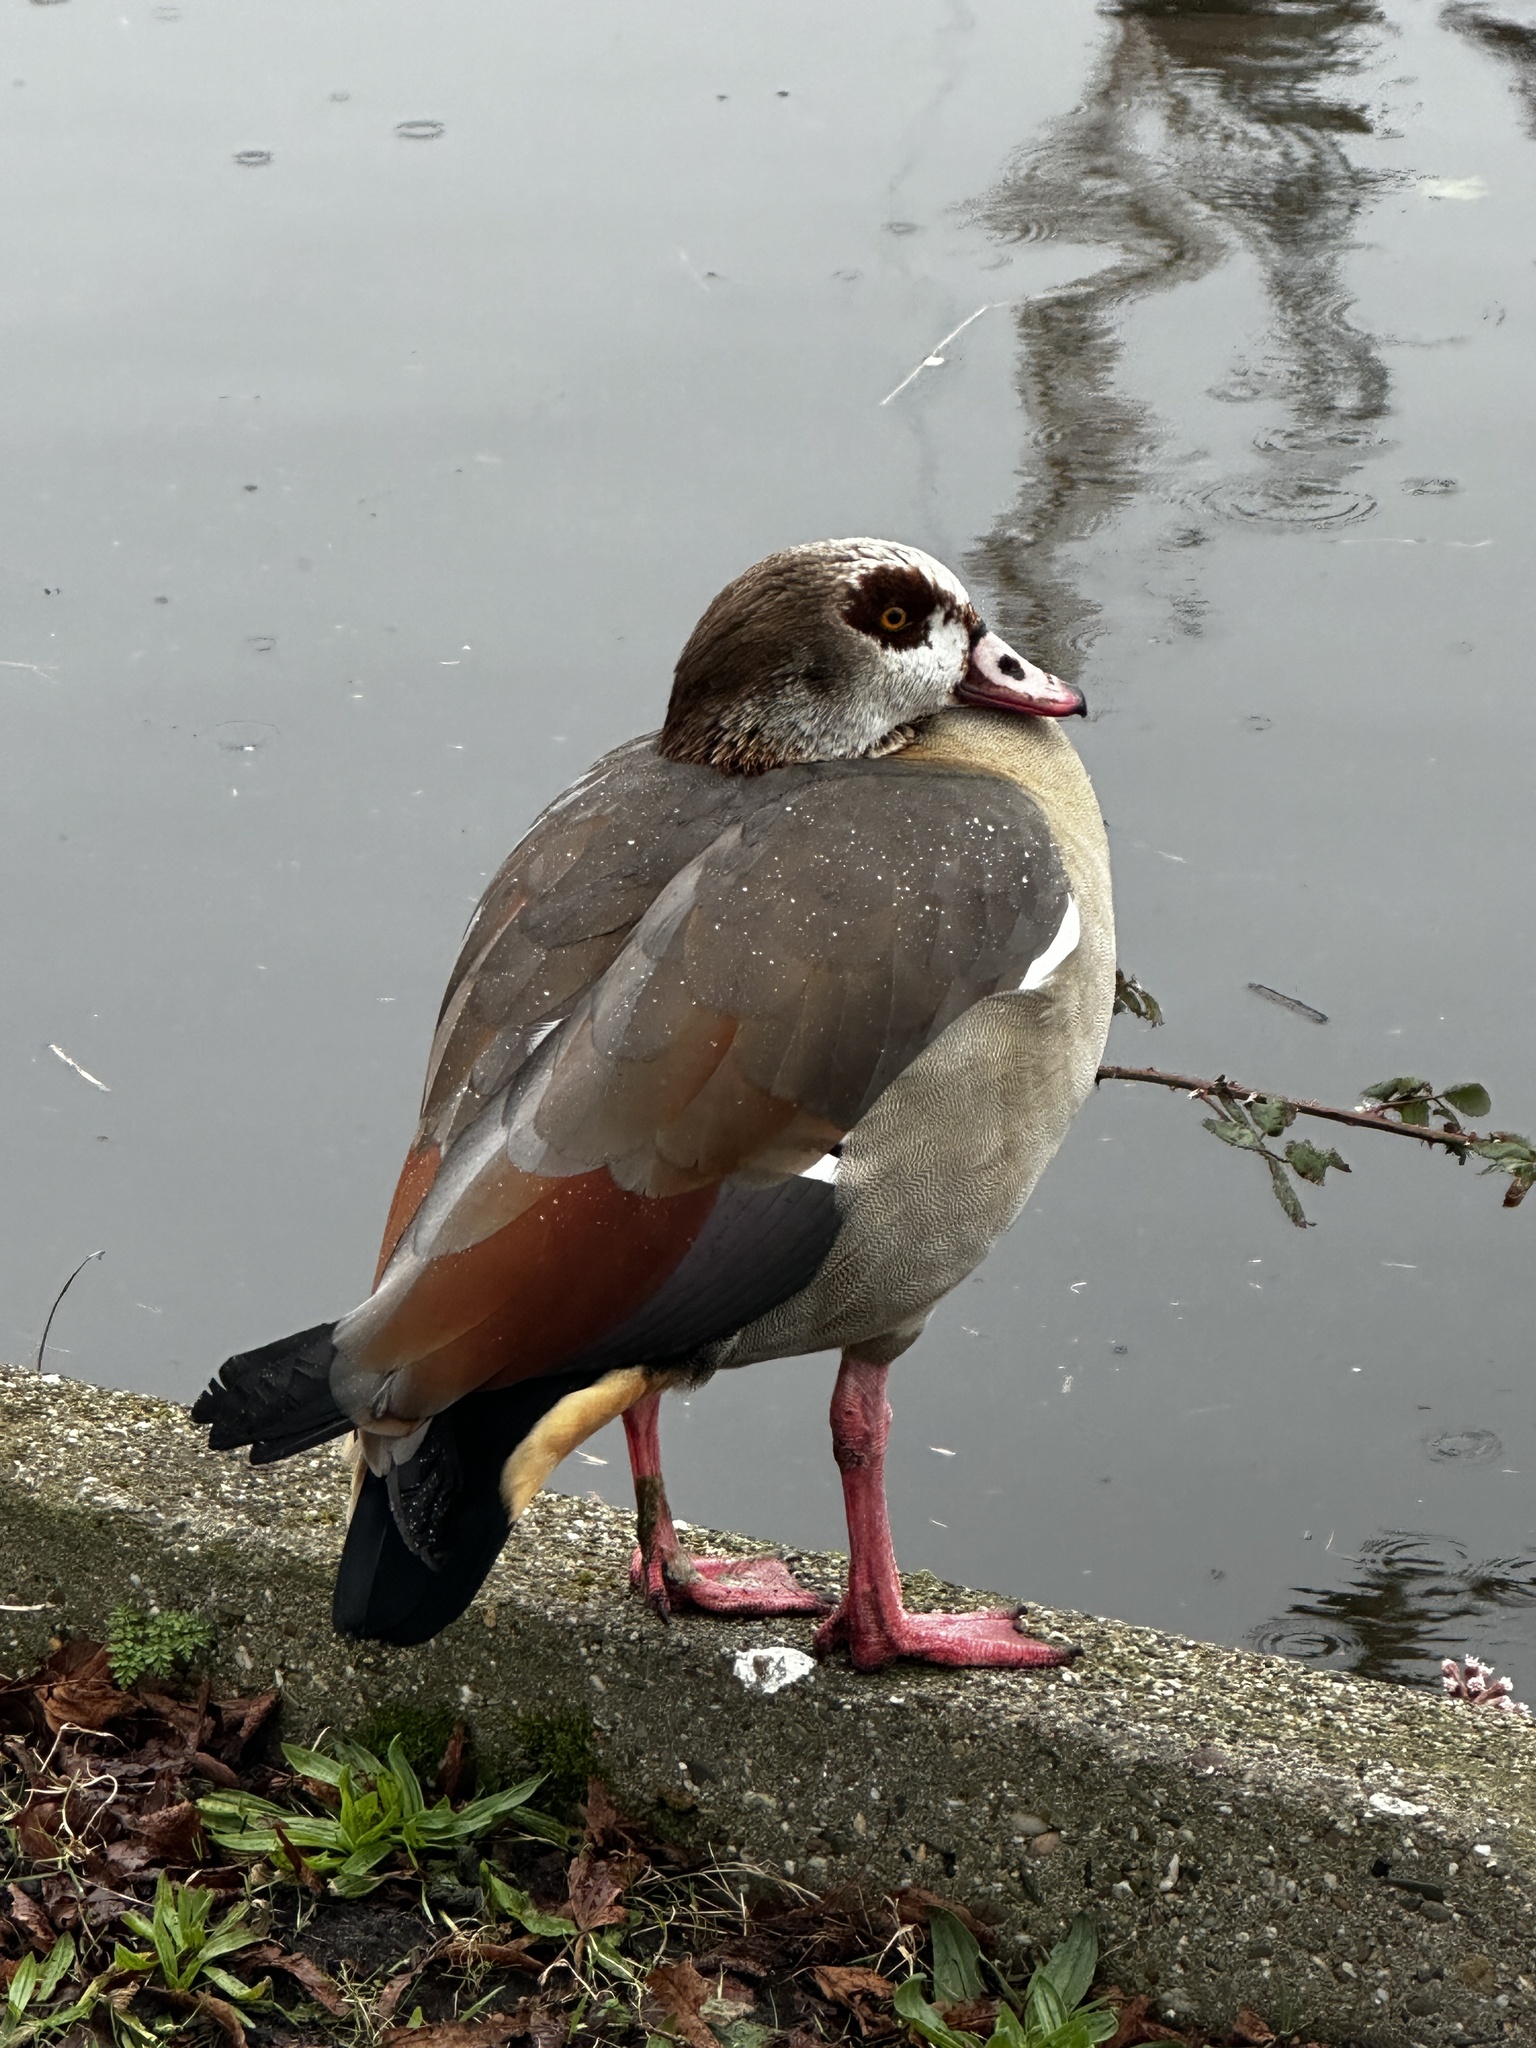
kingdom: Animalia
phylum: Chordata
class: Aves
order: Anseriformes
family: Anatidae
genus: Alopochen
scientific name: Alopochen aegyptiaca
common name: Egyptian goose
